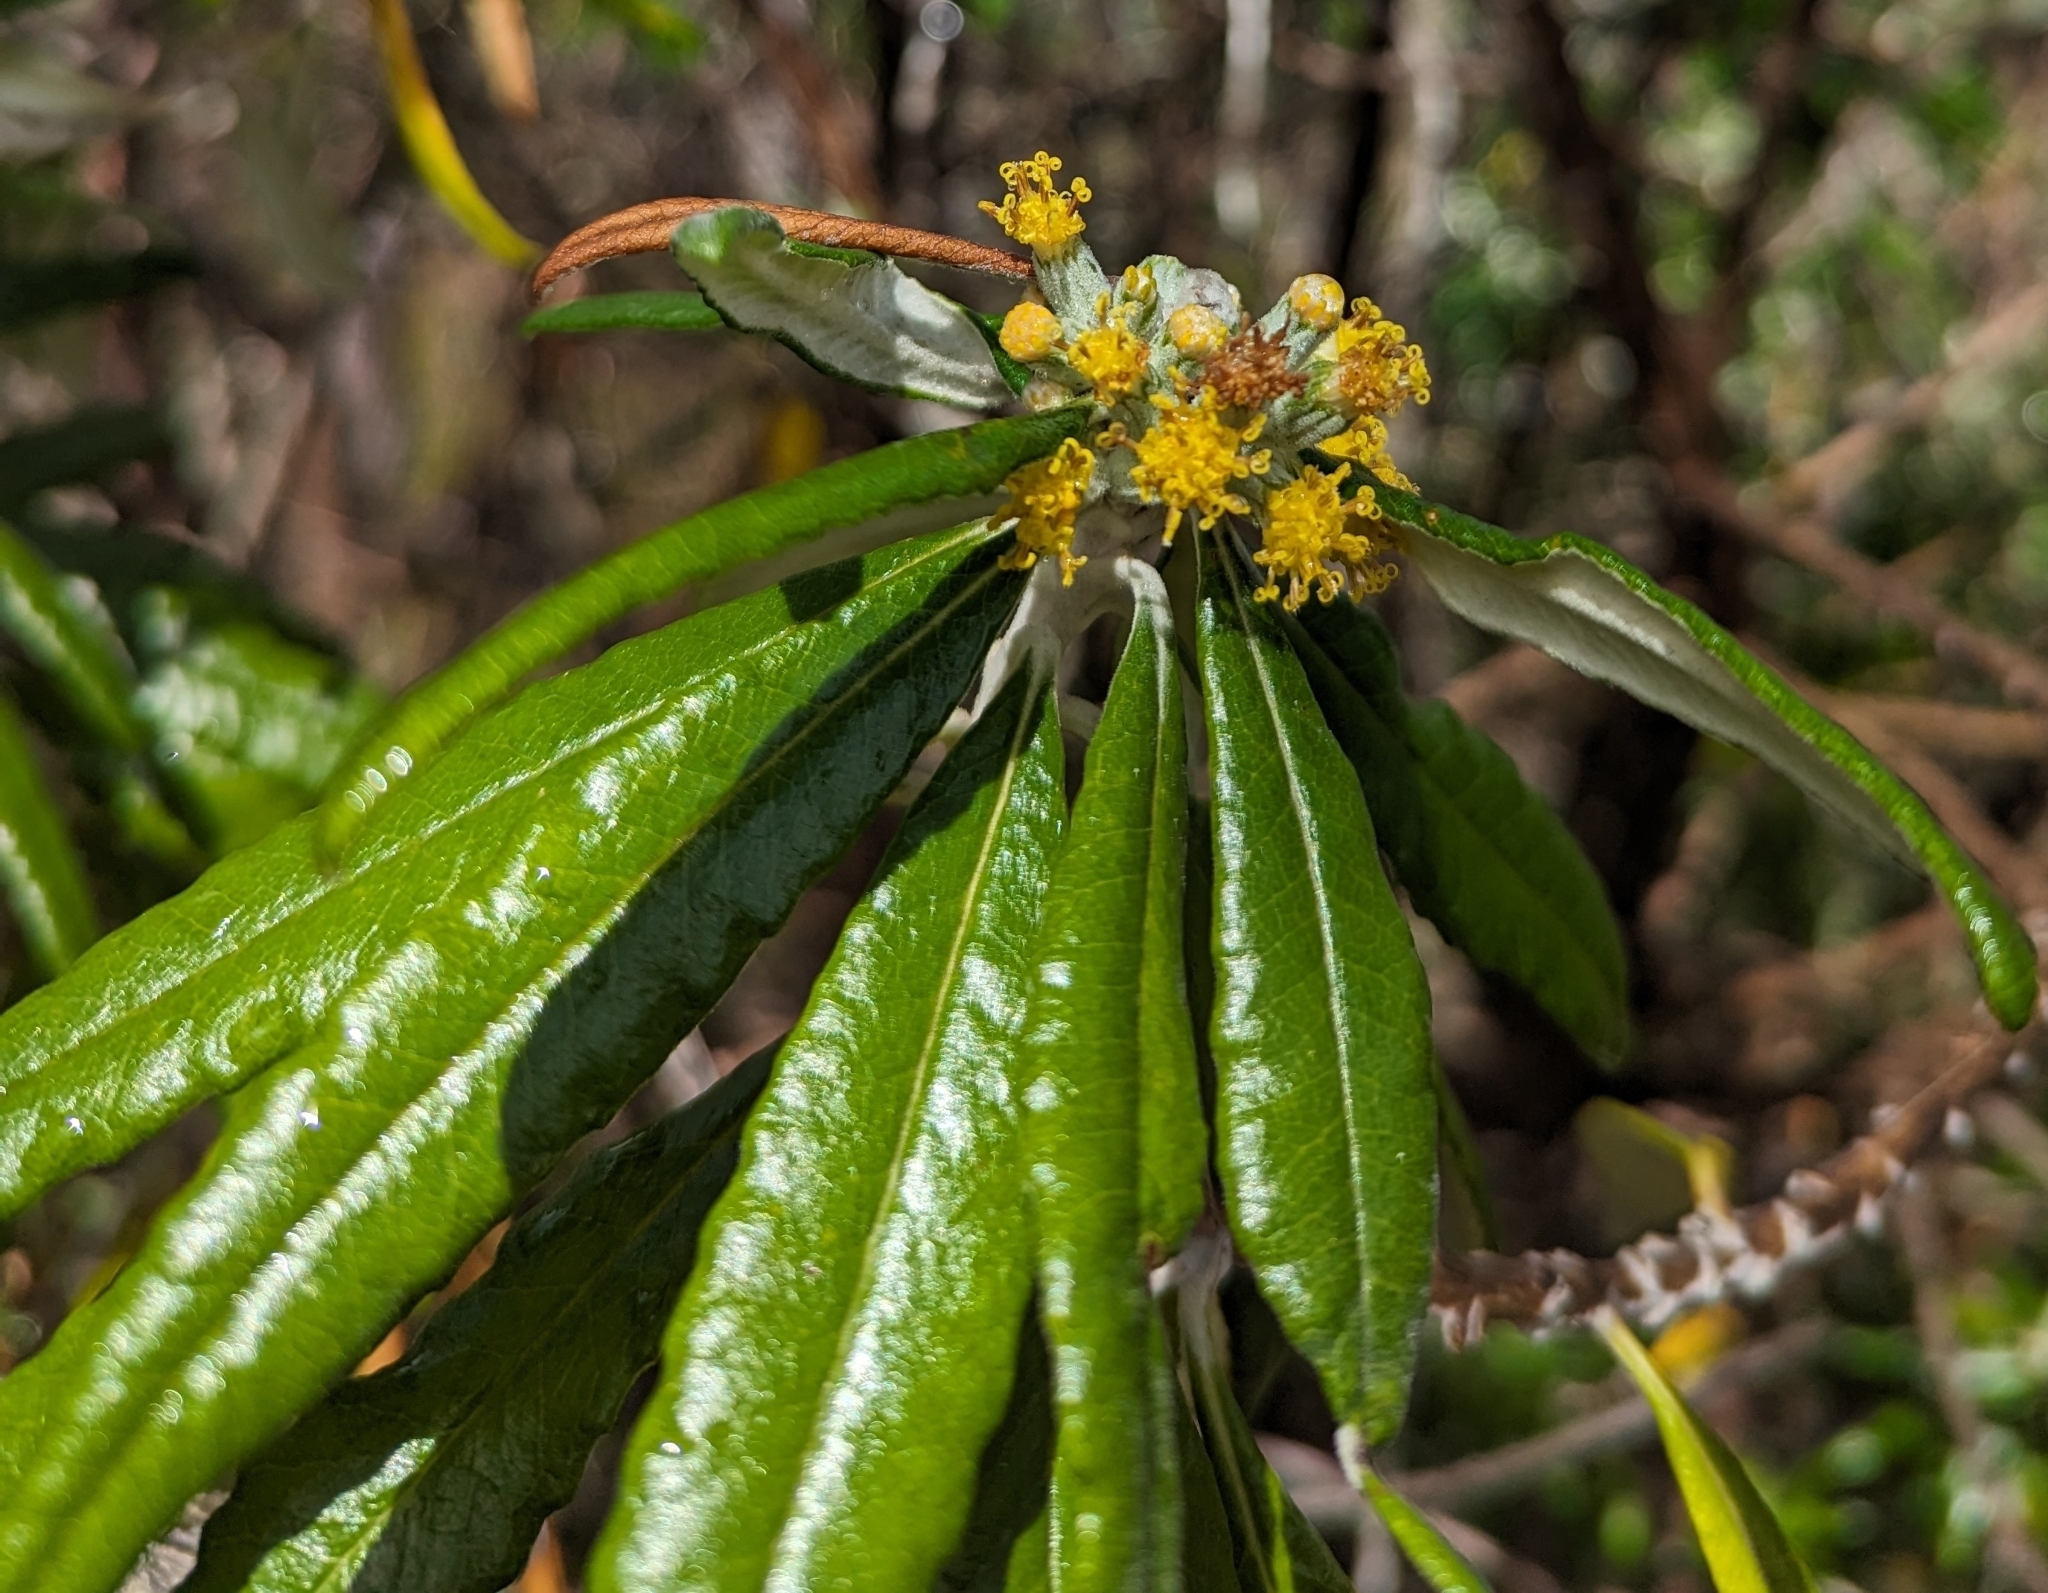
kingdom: Plantae
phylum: Tracheophyta
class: Magnoliopsida
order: Asterales
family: Asteraceae
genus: Bedfordia
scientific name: Bedfordia salicina
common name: Blanketleaf
